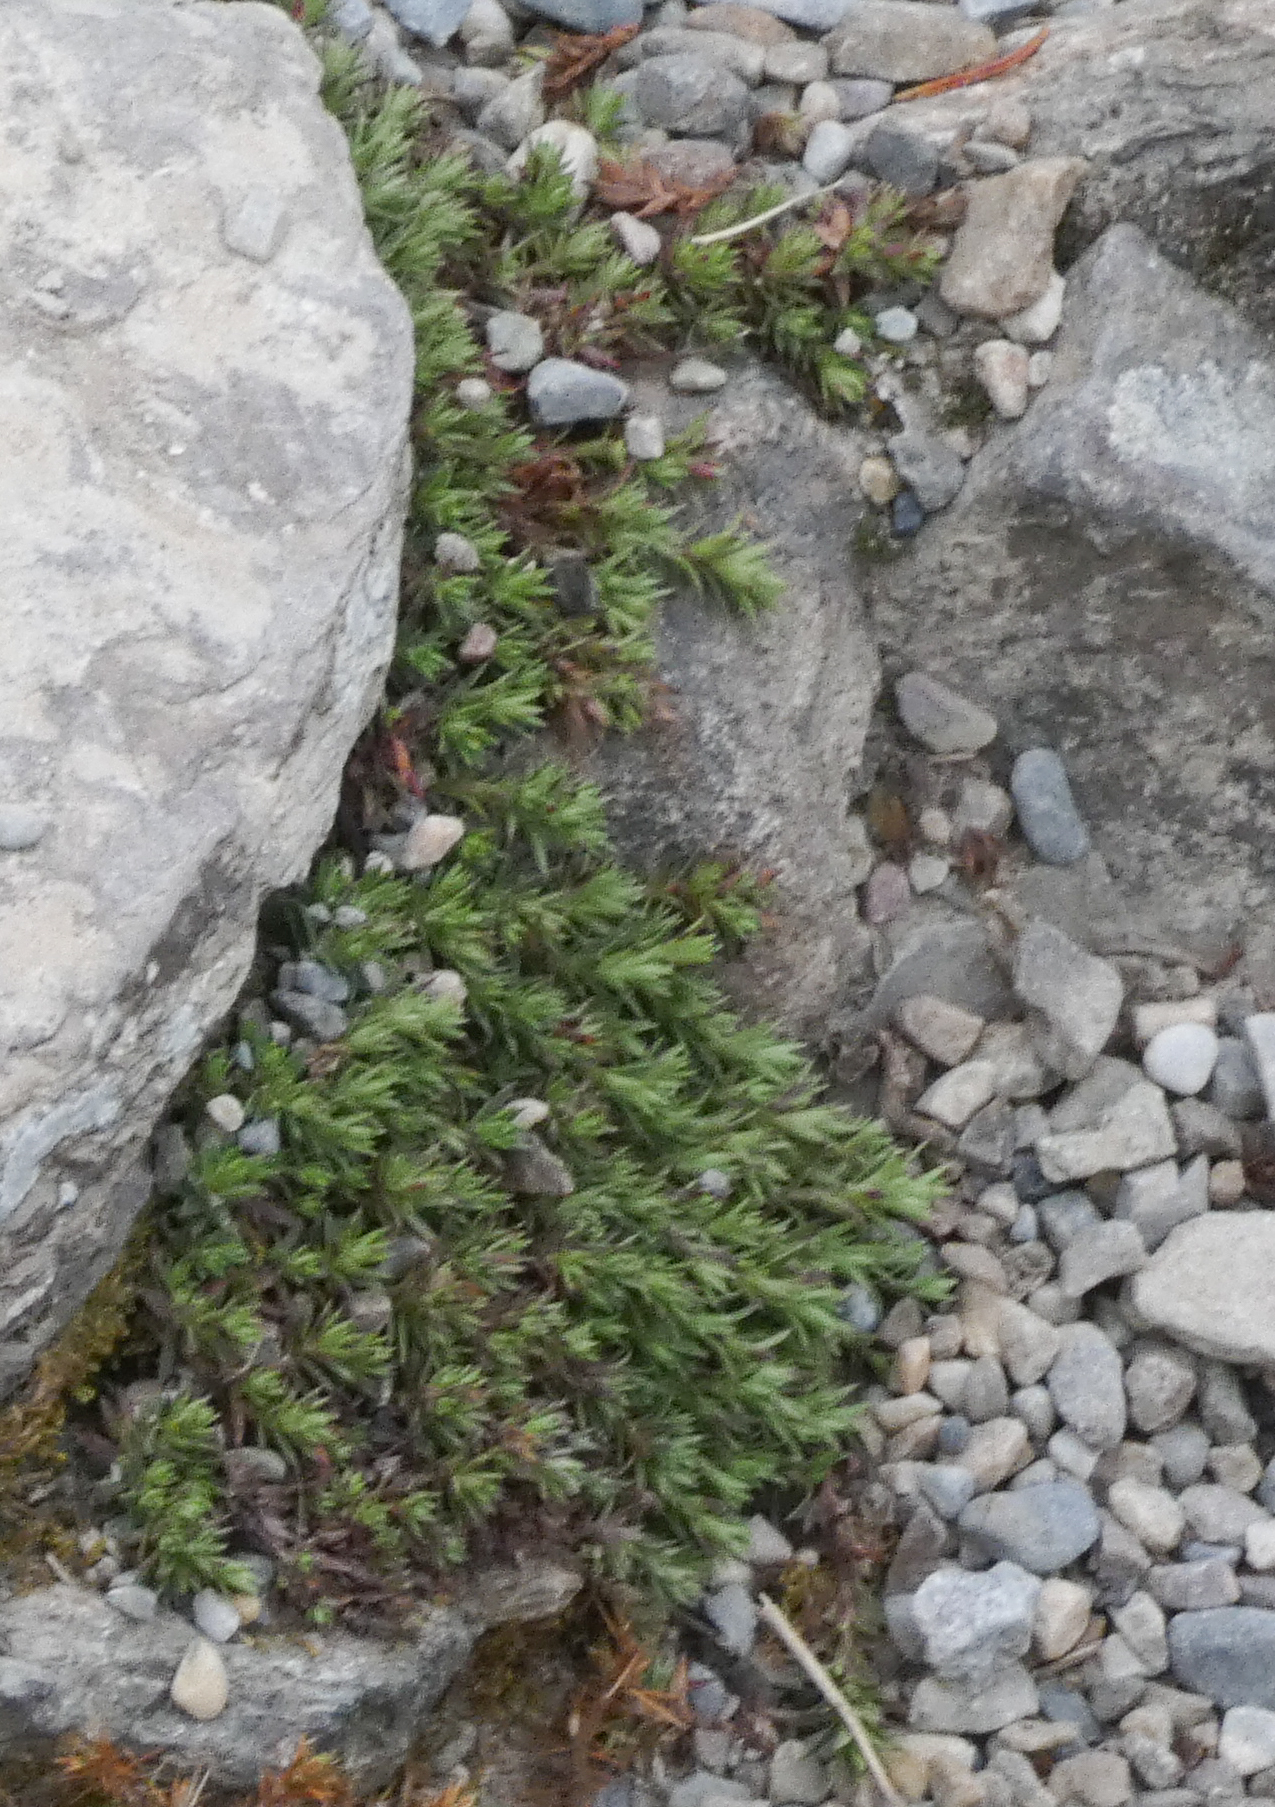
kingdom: Plantae
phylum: Tracheophyta
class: Magnoliopsida
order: Saxifragales
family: Saxifragaceae
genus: Saxifraga
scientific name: Saxifraga bronchialis
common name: Matted saxifrage
